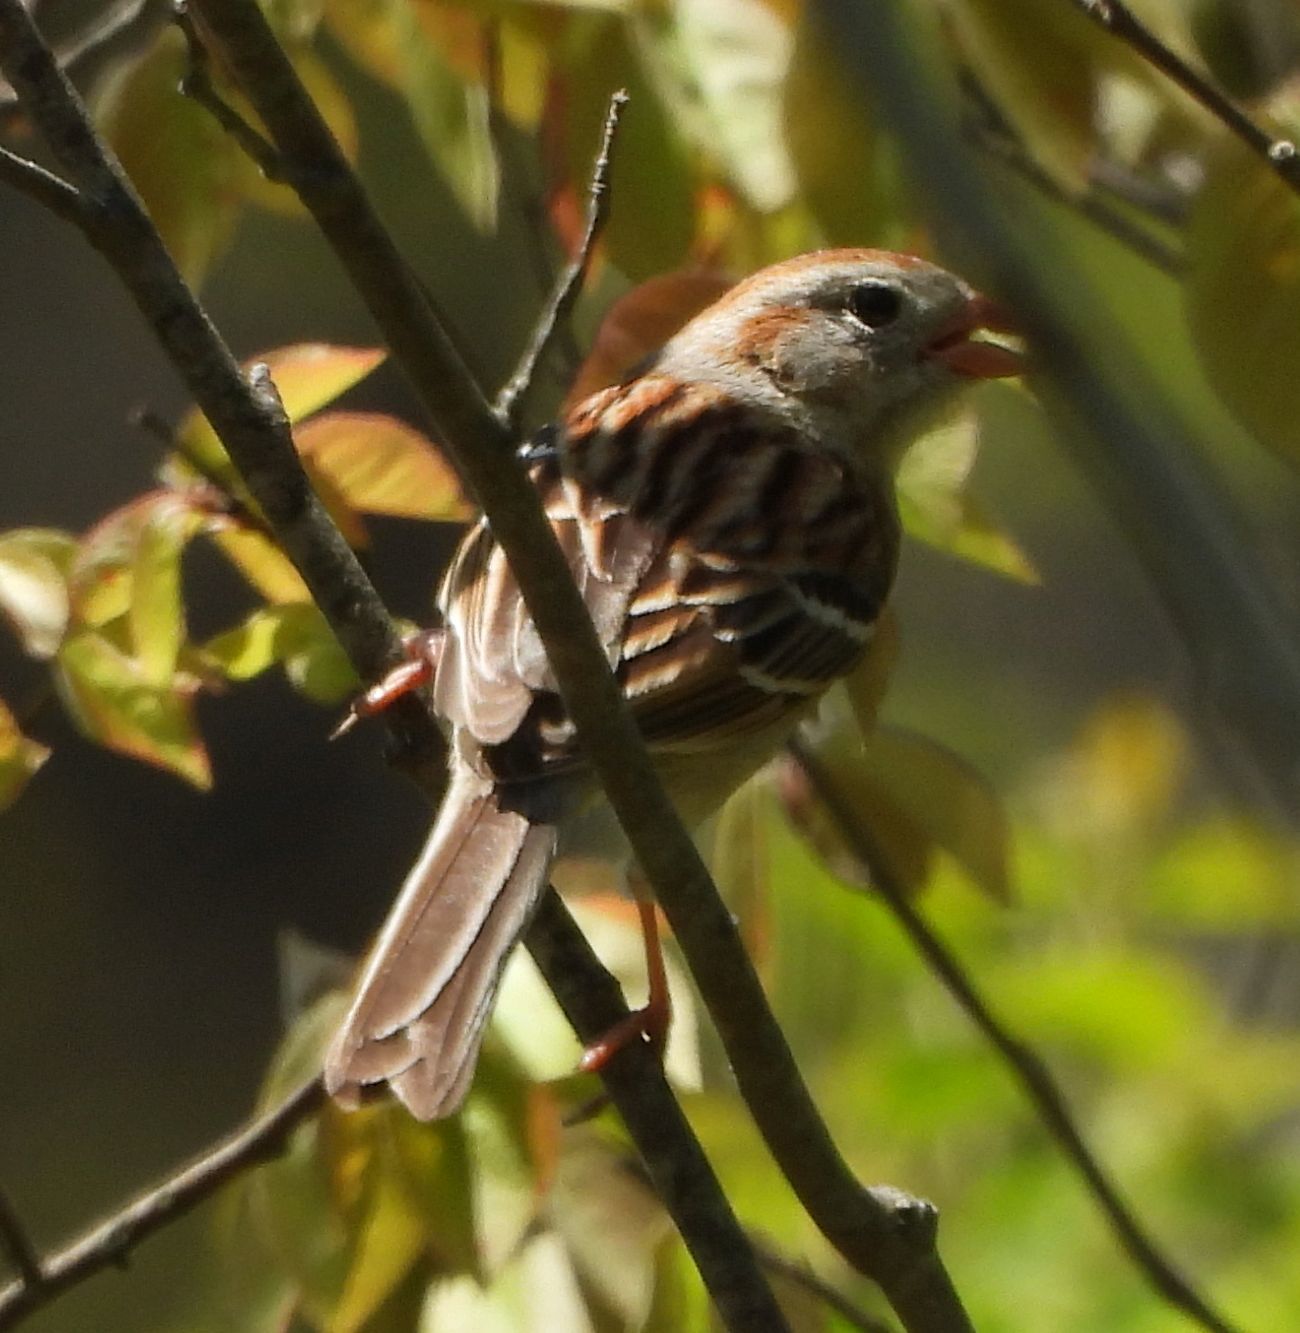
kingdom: Animalia
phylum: Chordata
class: Aves
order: Passeriformes
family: Passerellidae
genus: Spizella
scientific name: Spizella pusilla
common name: Field sparrow
